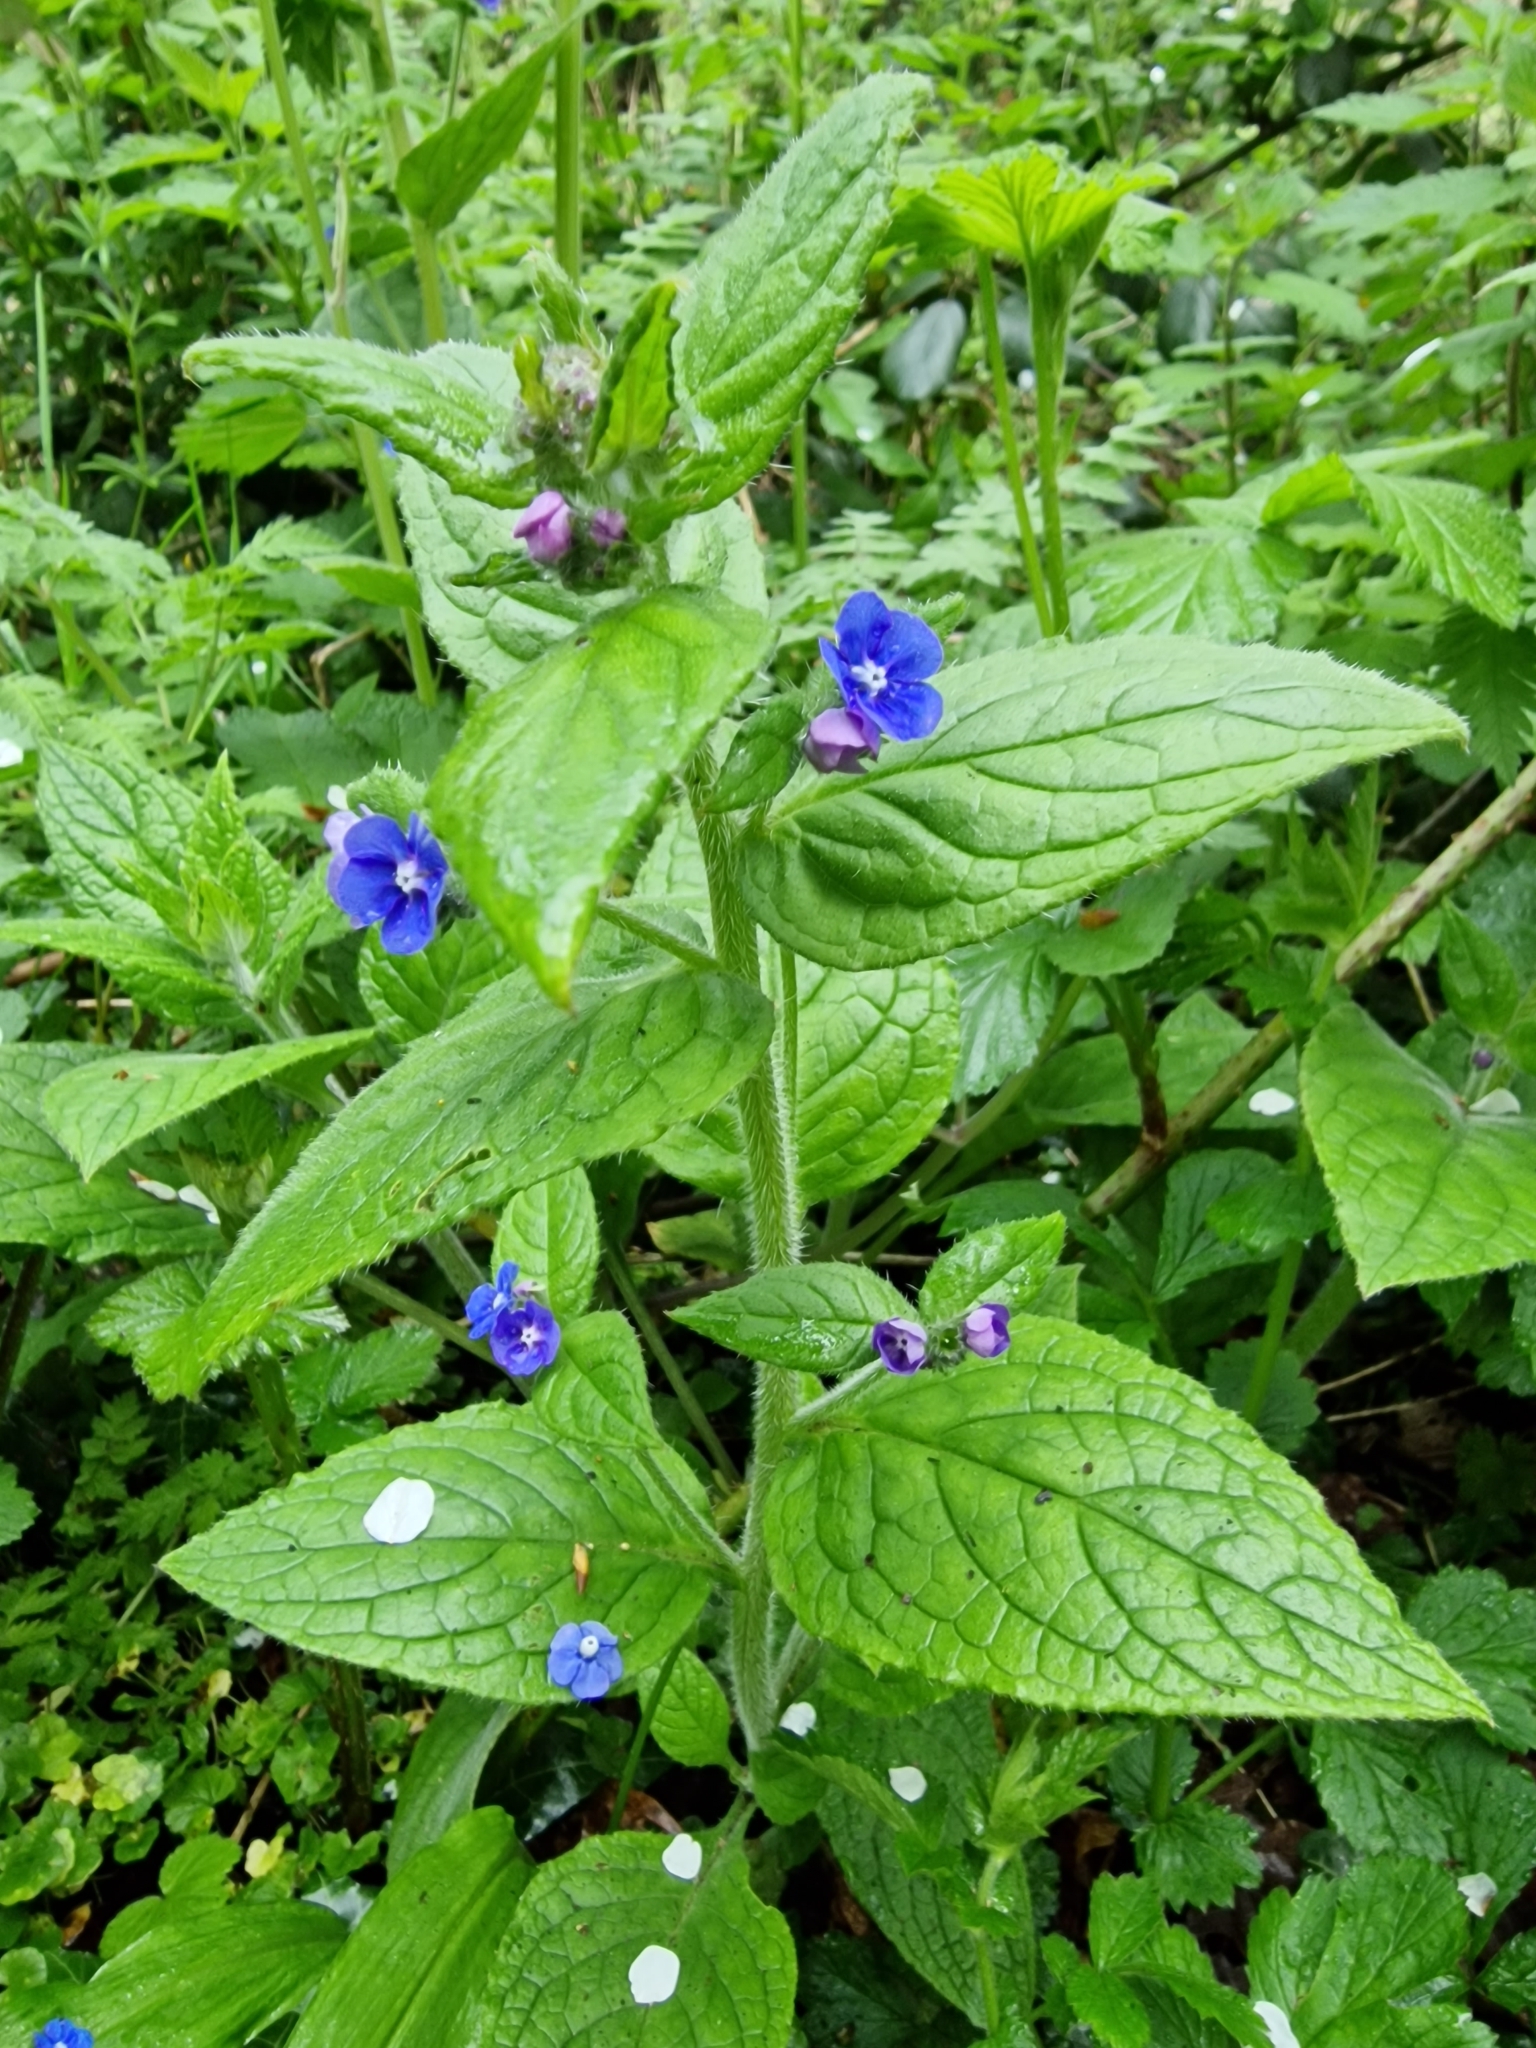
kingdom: Plantae
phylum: Tracheophyta
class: Magnoliopsida
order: Boraginales
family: Boraginaceae
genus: Pentaglottis
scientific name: Pentaglottis sempervirens
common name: Green alkanet
